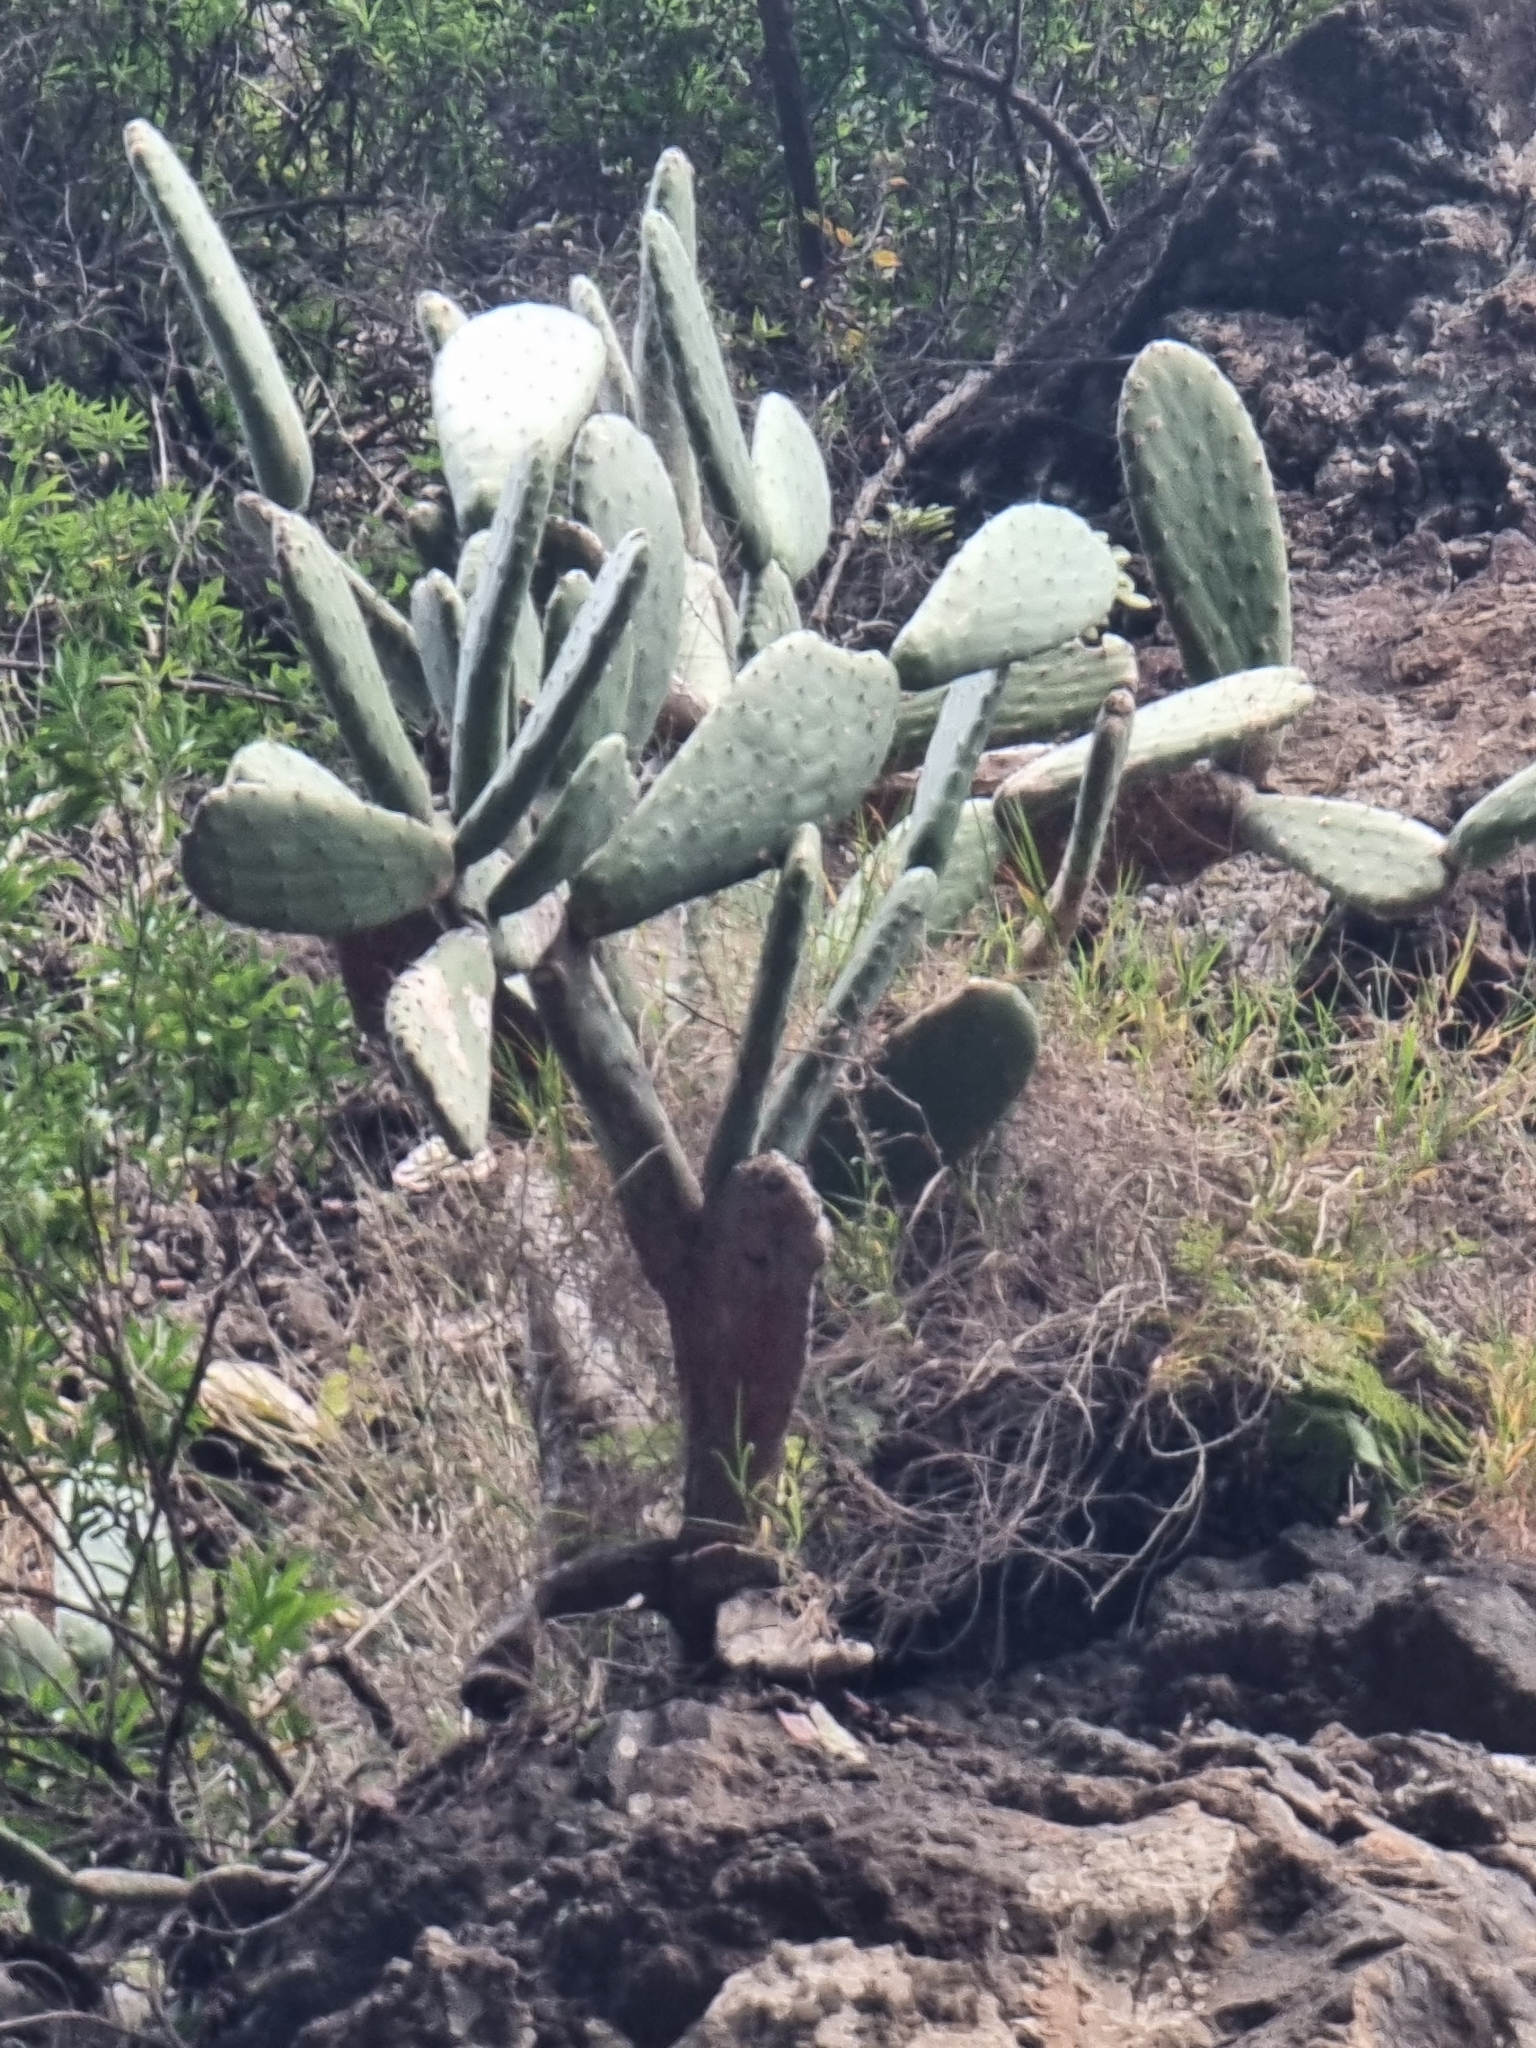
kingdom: Plantae
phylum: Tracheophyta
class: Magnoliopsida
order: Caryophyllales
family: Cactaceae
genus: Opuntia
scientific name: Opuntia ficus-indica
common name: Barbary fig
